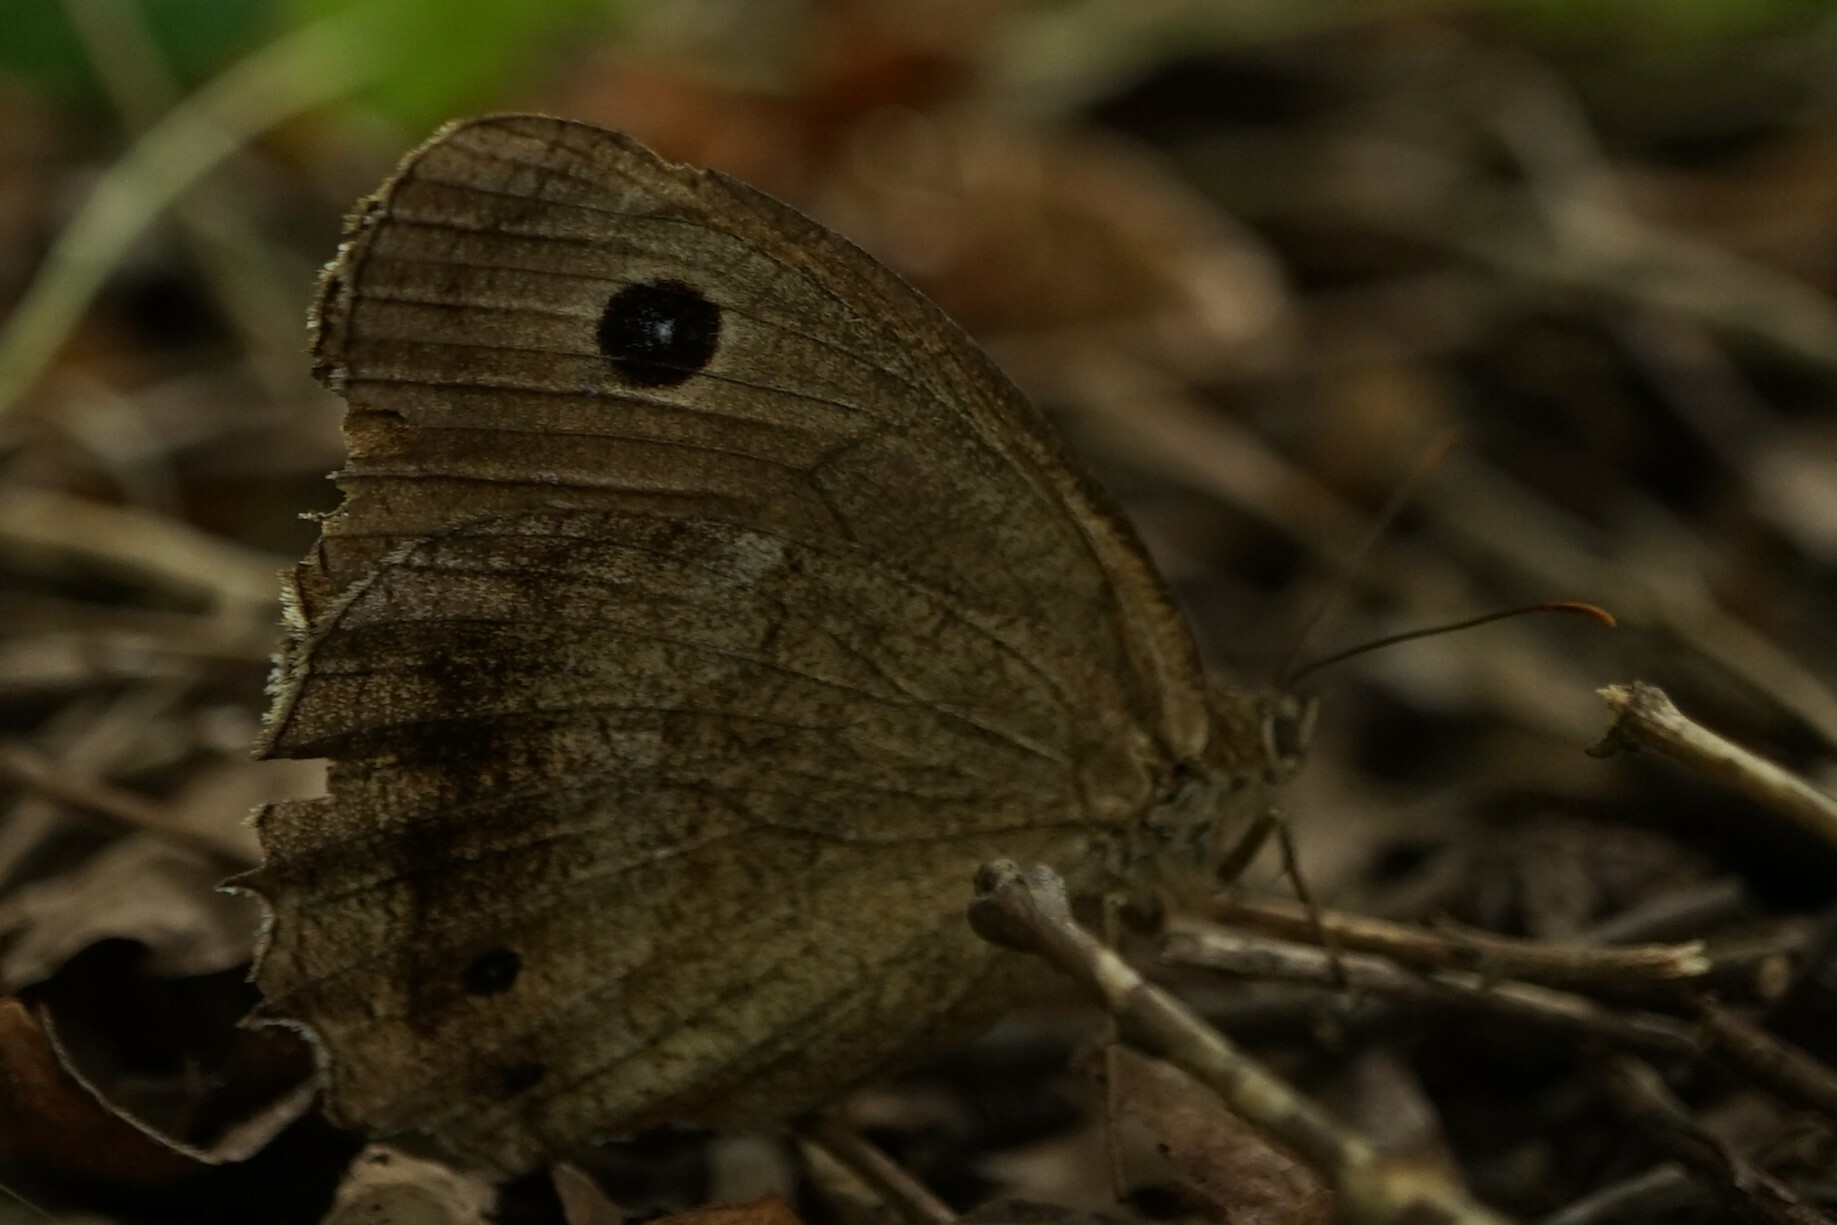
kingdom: Animalia
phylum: Arthropoda
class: Insecta
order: Lepidoptera
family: Nymphalidae
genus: Minois
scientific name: Minois dryas
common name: Dryad
